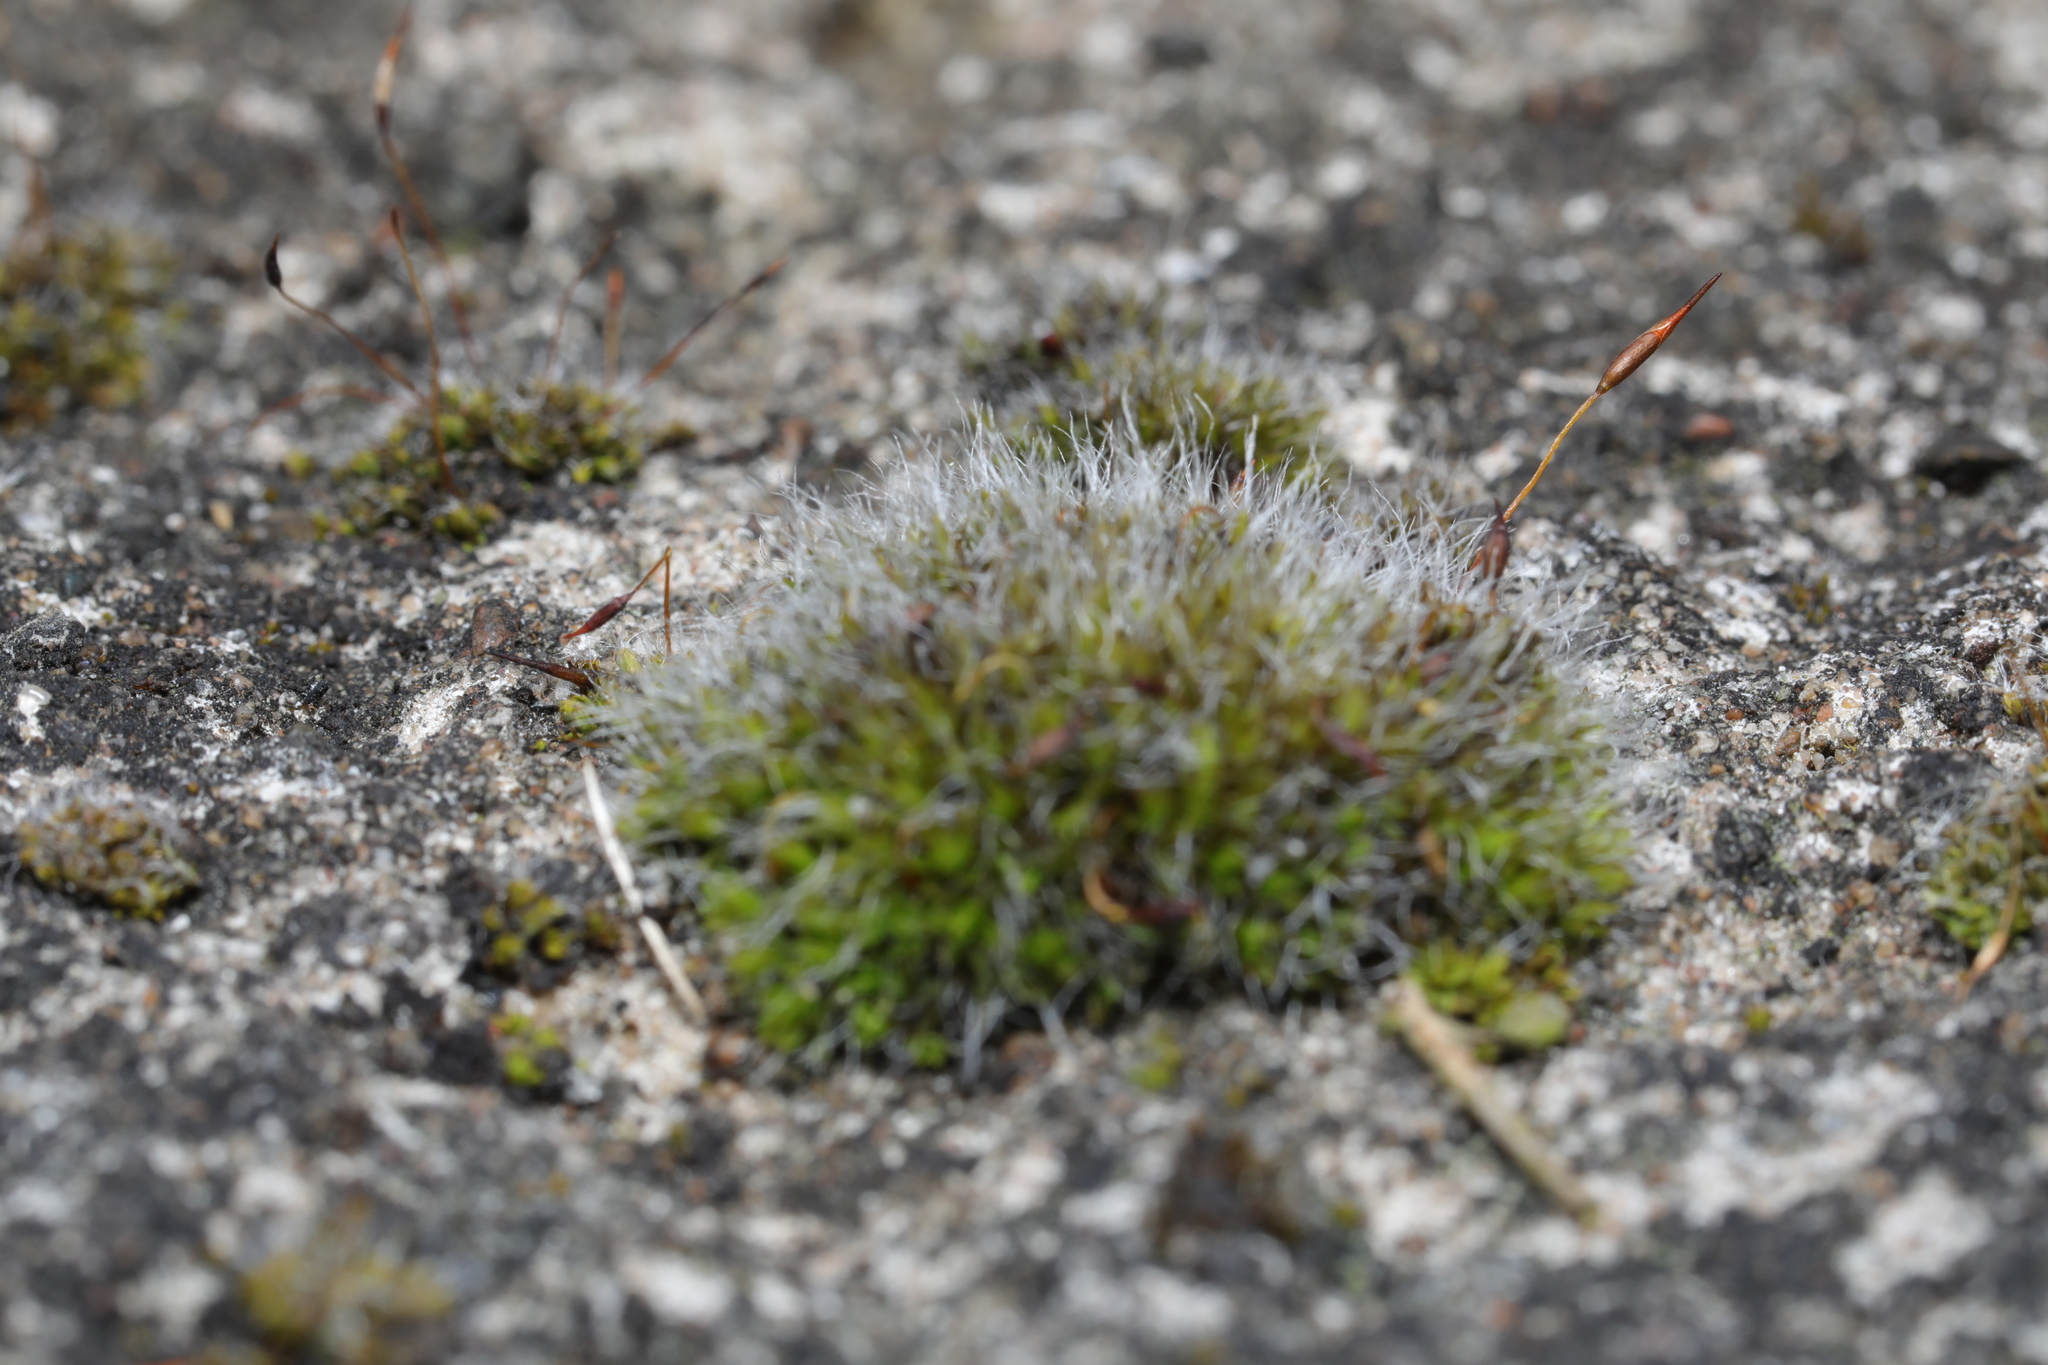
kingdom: Plantae
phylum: Bryophyta
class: Bryopsida
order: Grimmiales
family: Grimmiaceae
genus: Grimmia
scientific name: Grimmia pulvinata
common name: Grey-cushioned grimmia
